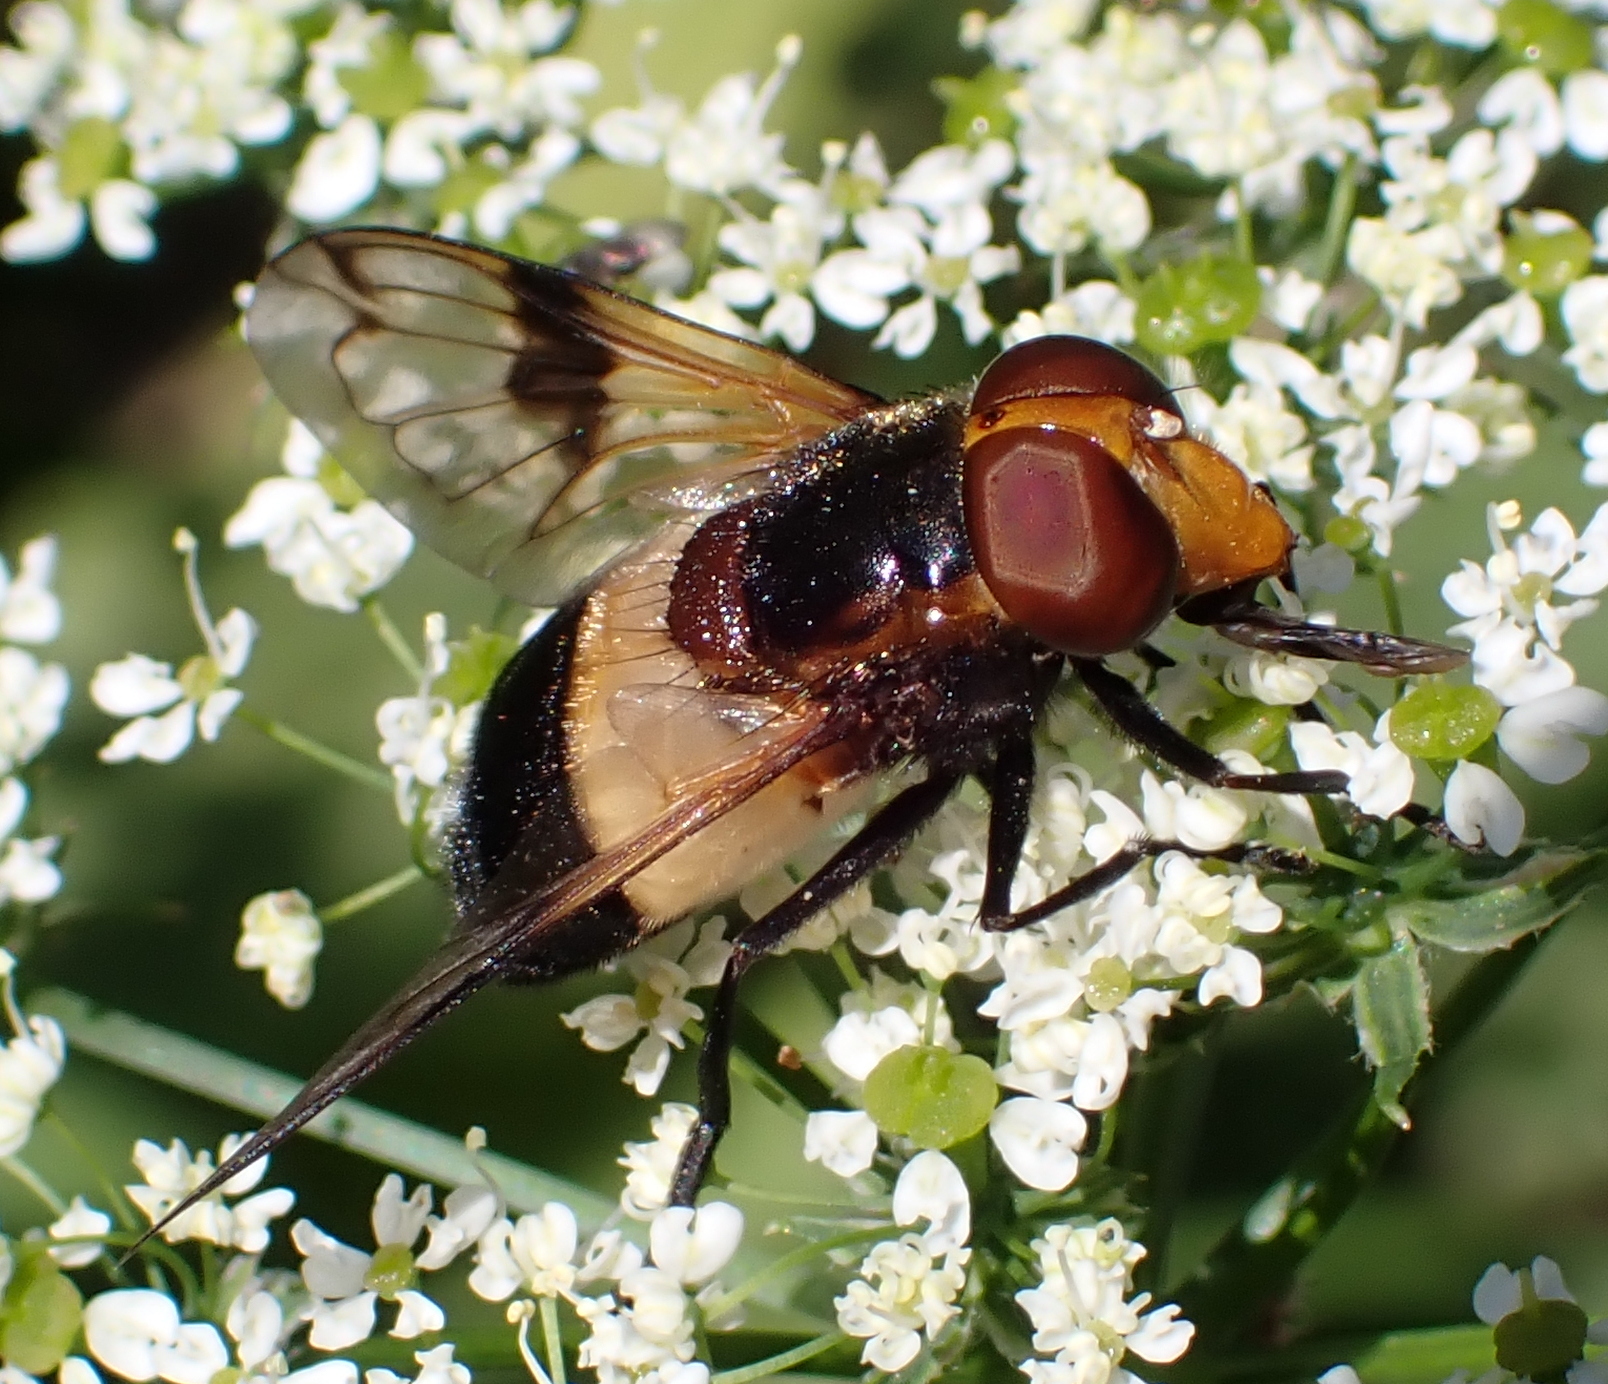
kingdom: Animalia
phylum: Arthropoda
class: Insecta
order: Diptera
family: Syrphidae
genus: Volucella
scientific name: Volucella pellucens
